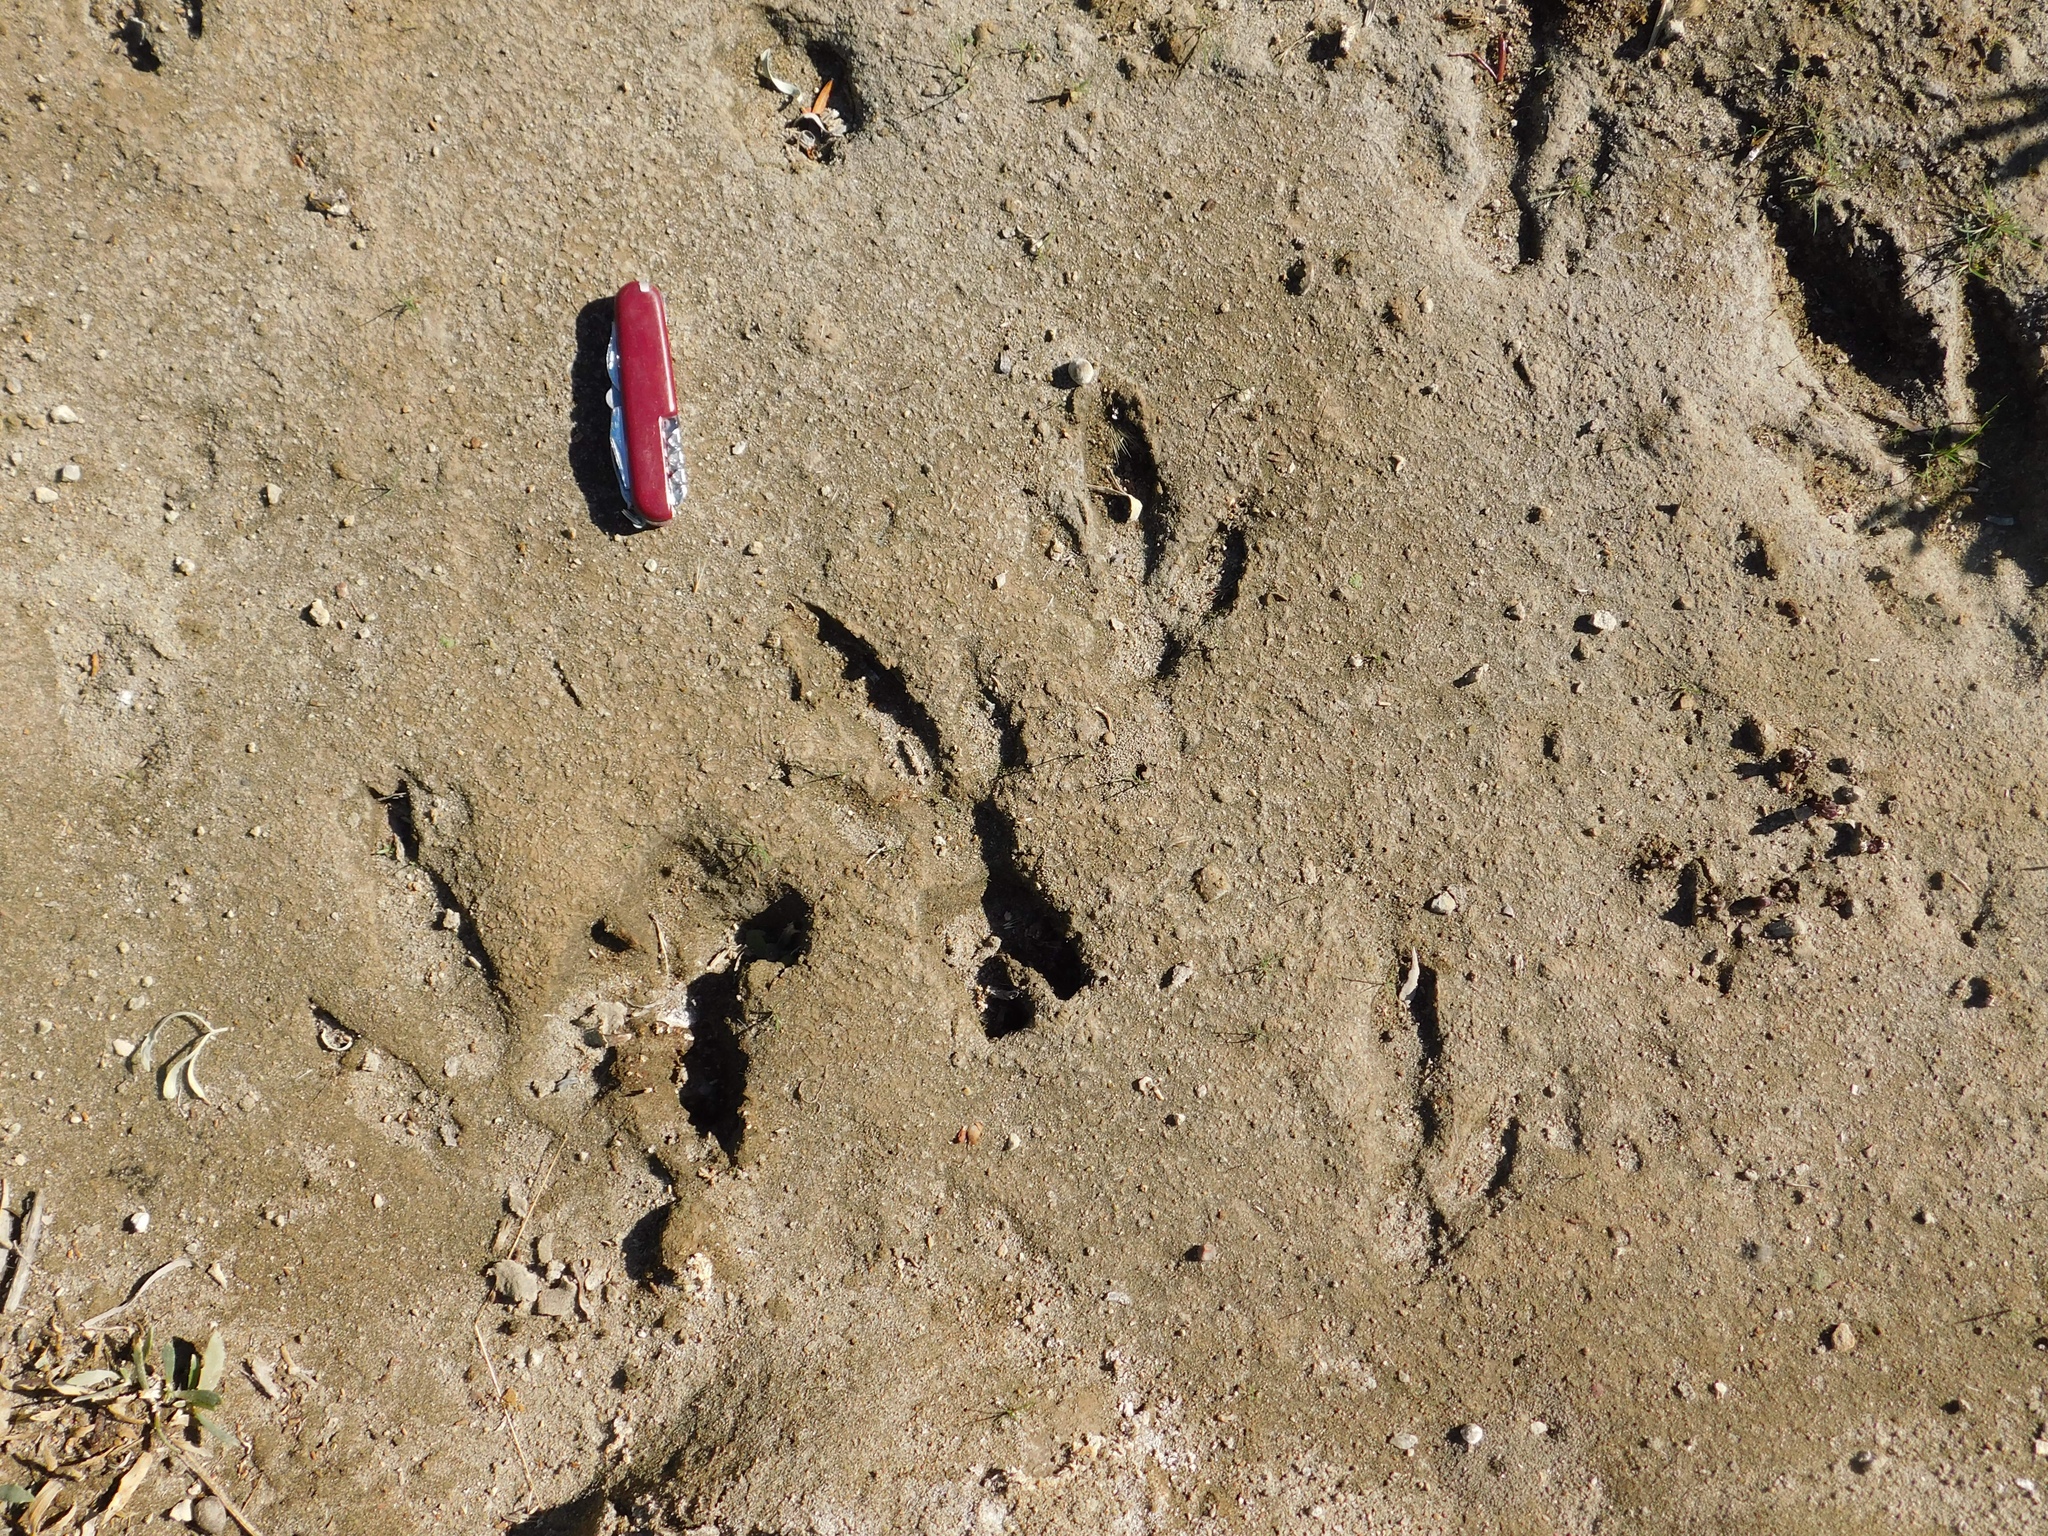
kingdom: Animalia
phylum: Chordata
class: Aves
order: Rheiformes
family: Rheidae
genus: Rhea
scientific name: Rhea pennata
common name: Lesser rhea
